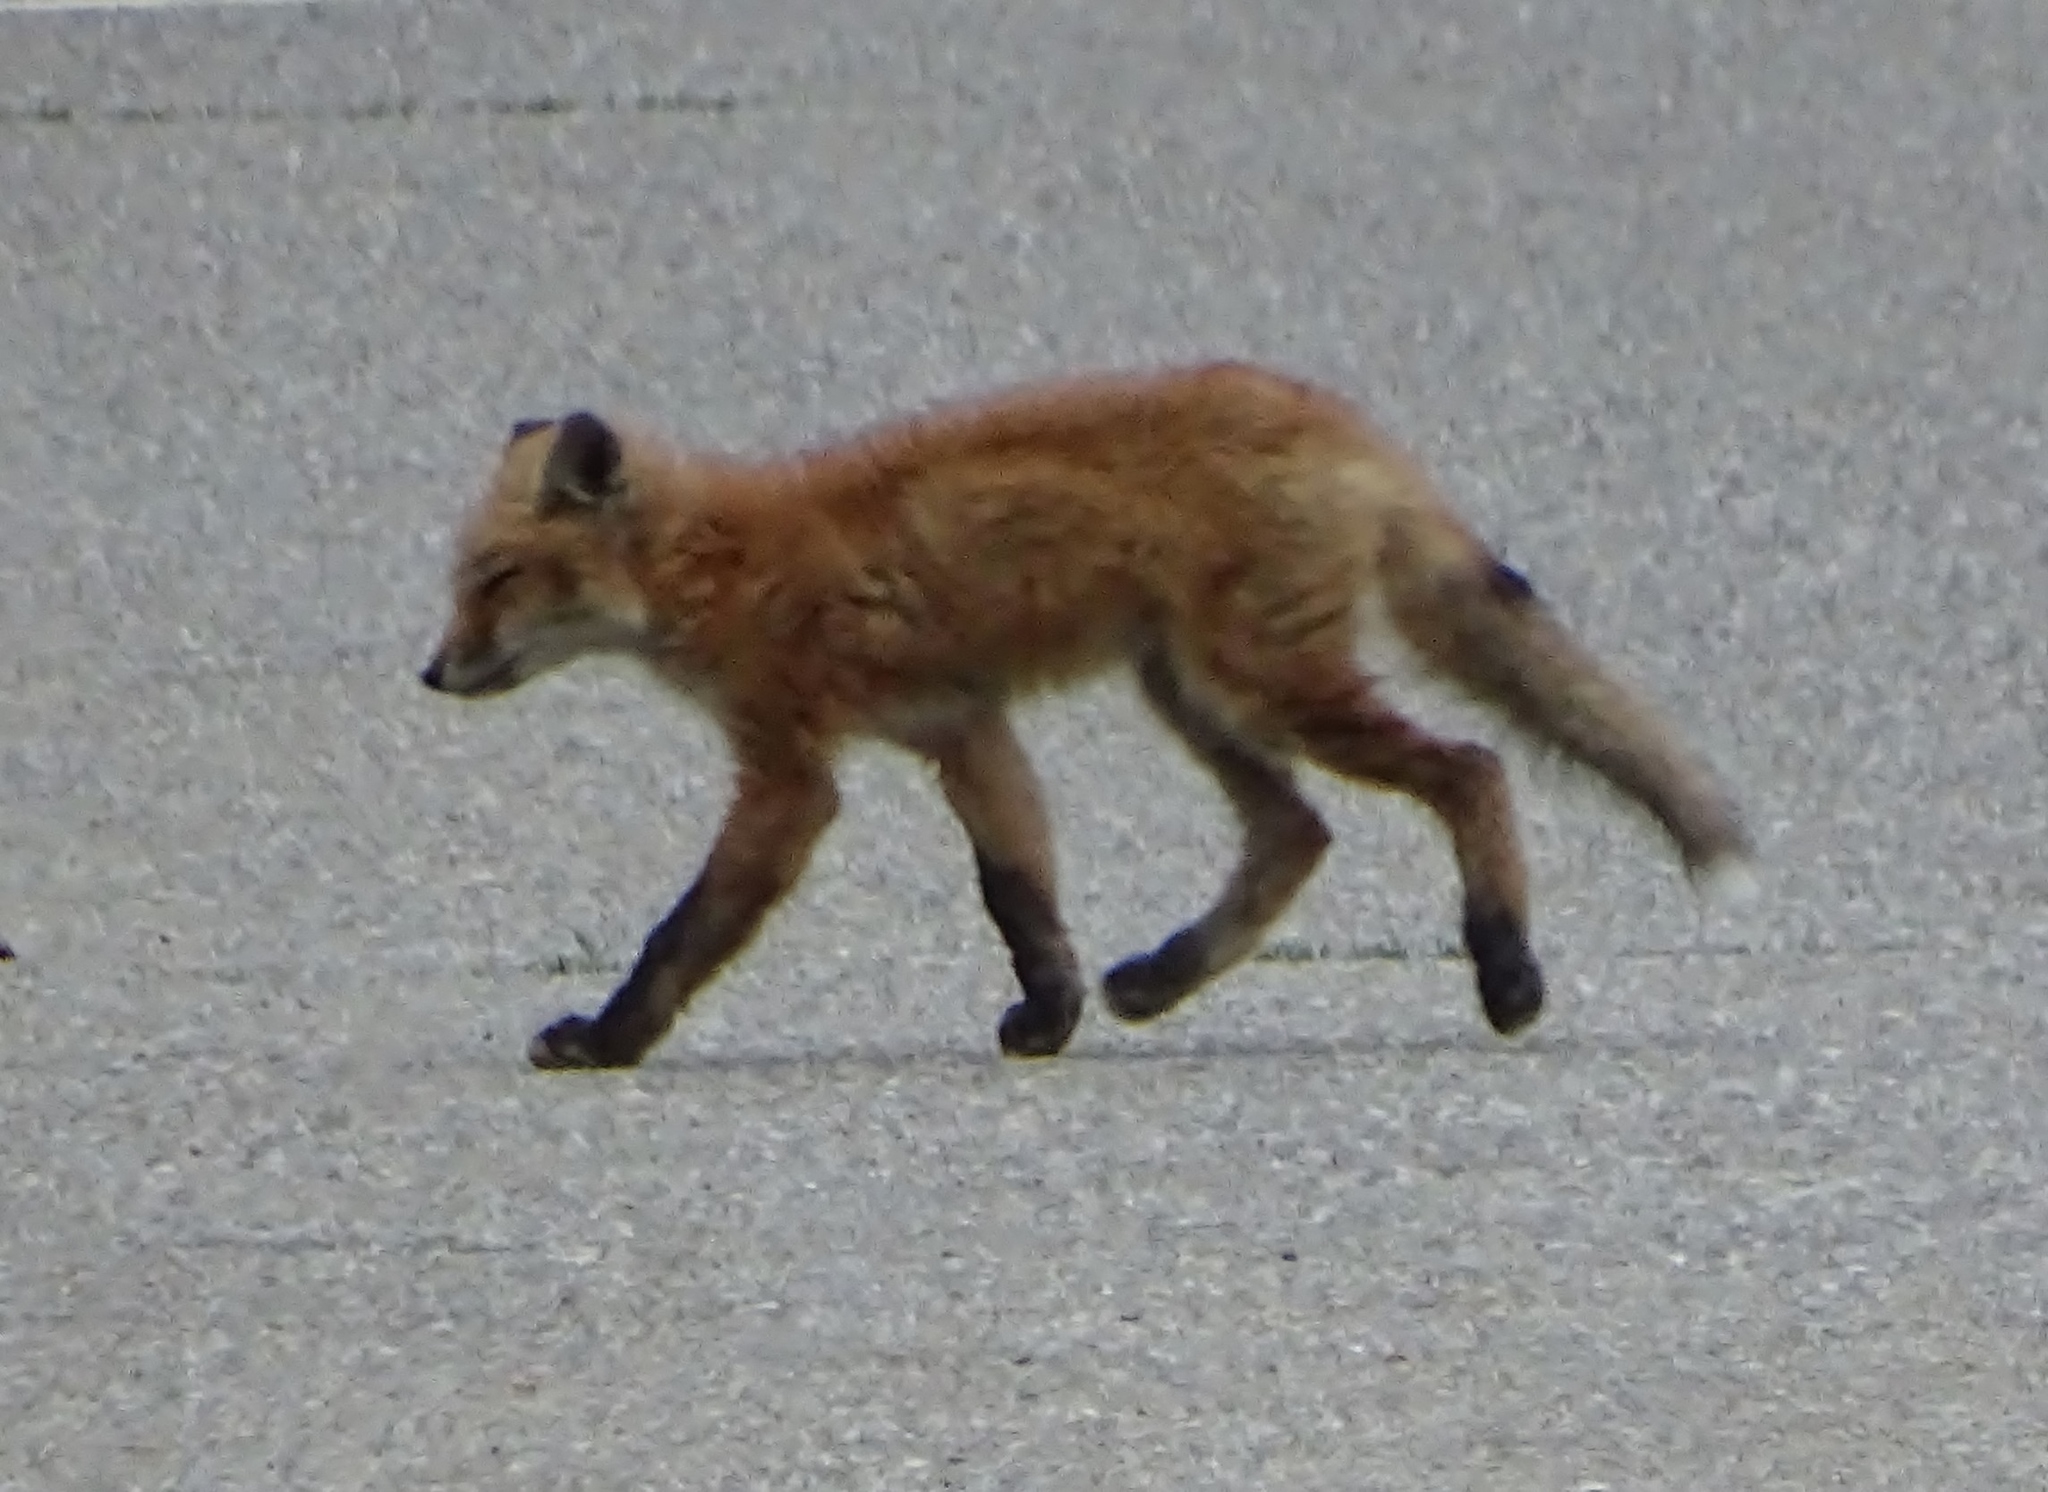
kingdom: Animalia
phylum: Chordata
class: Mammalia
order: Carnivora
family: Canidae
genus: Vulpes
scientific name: Vulpes vulpes
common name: Red fox
